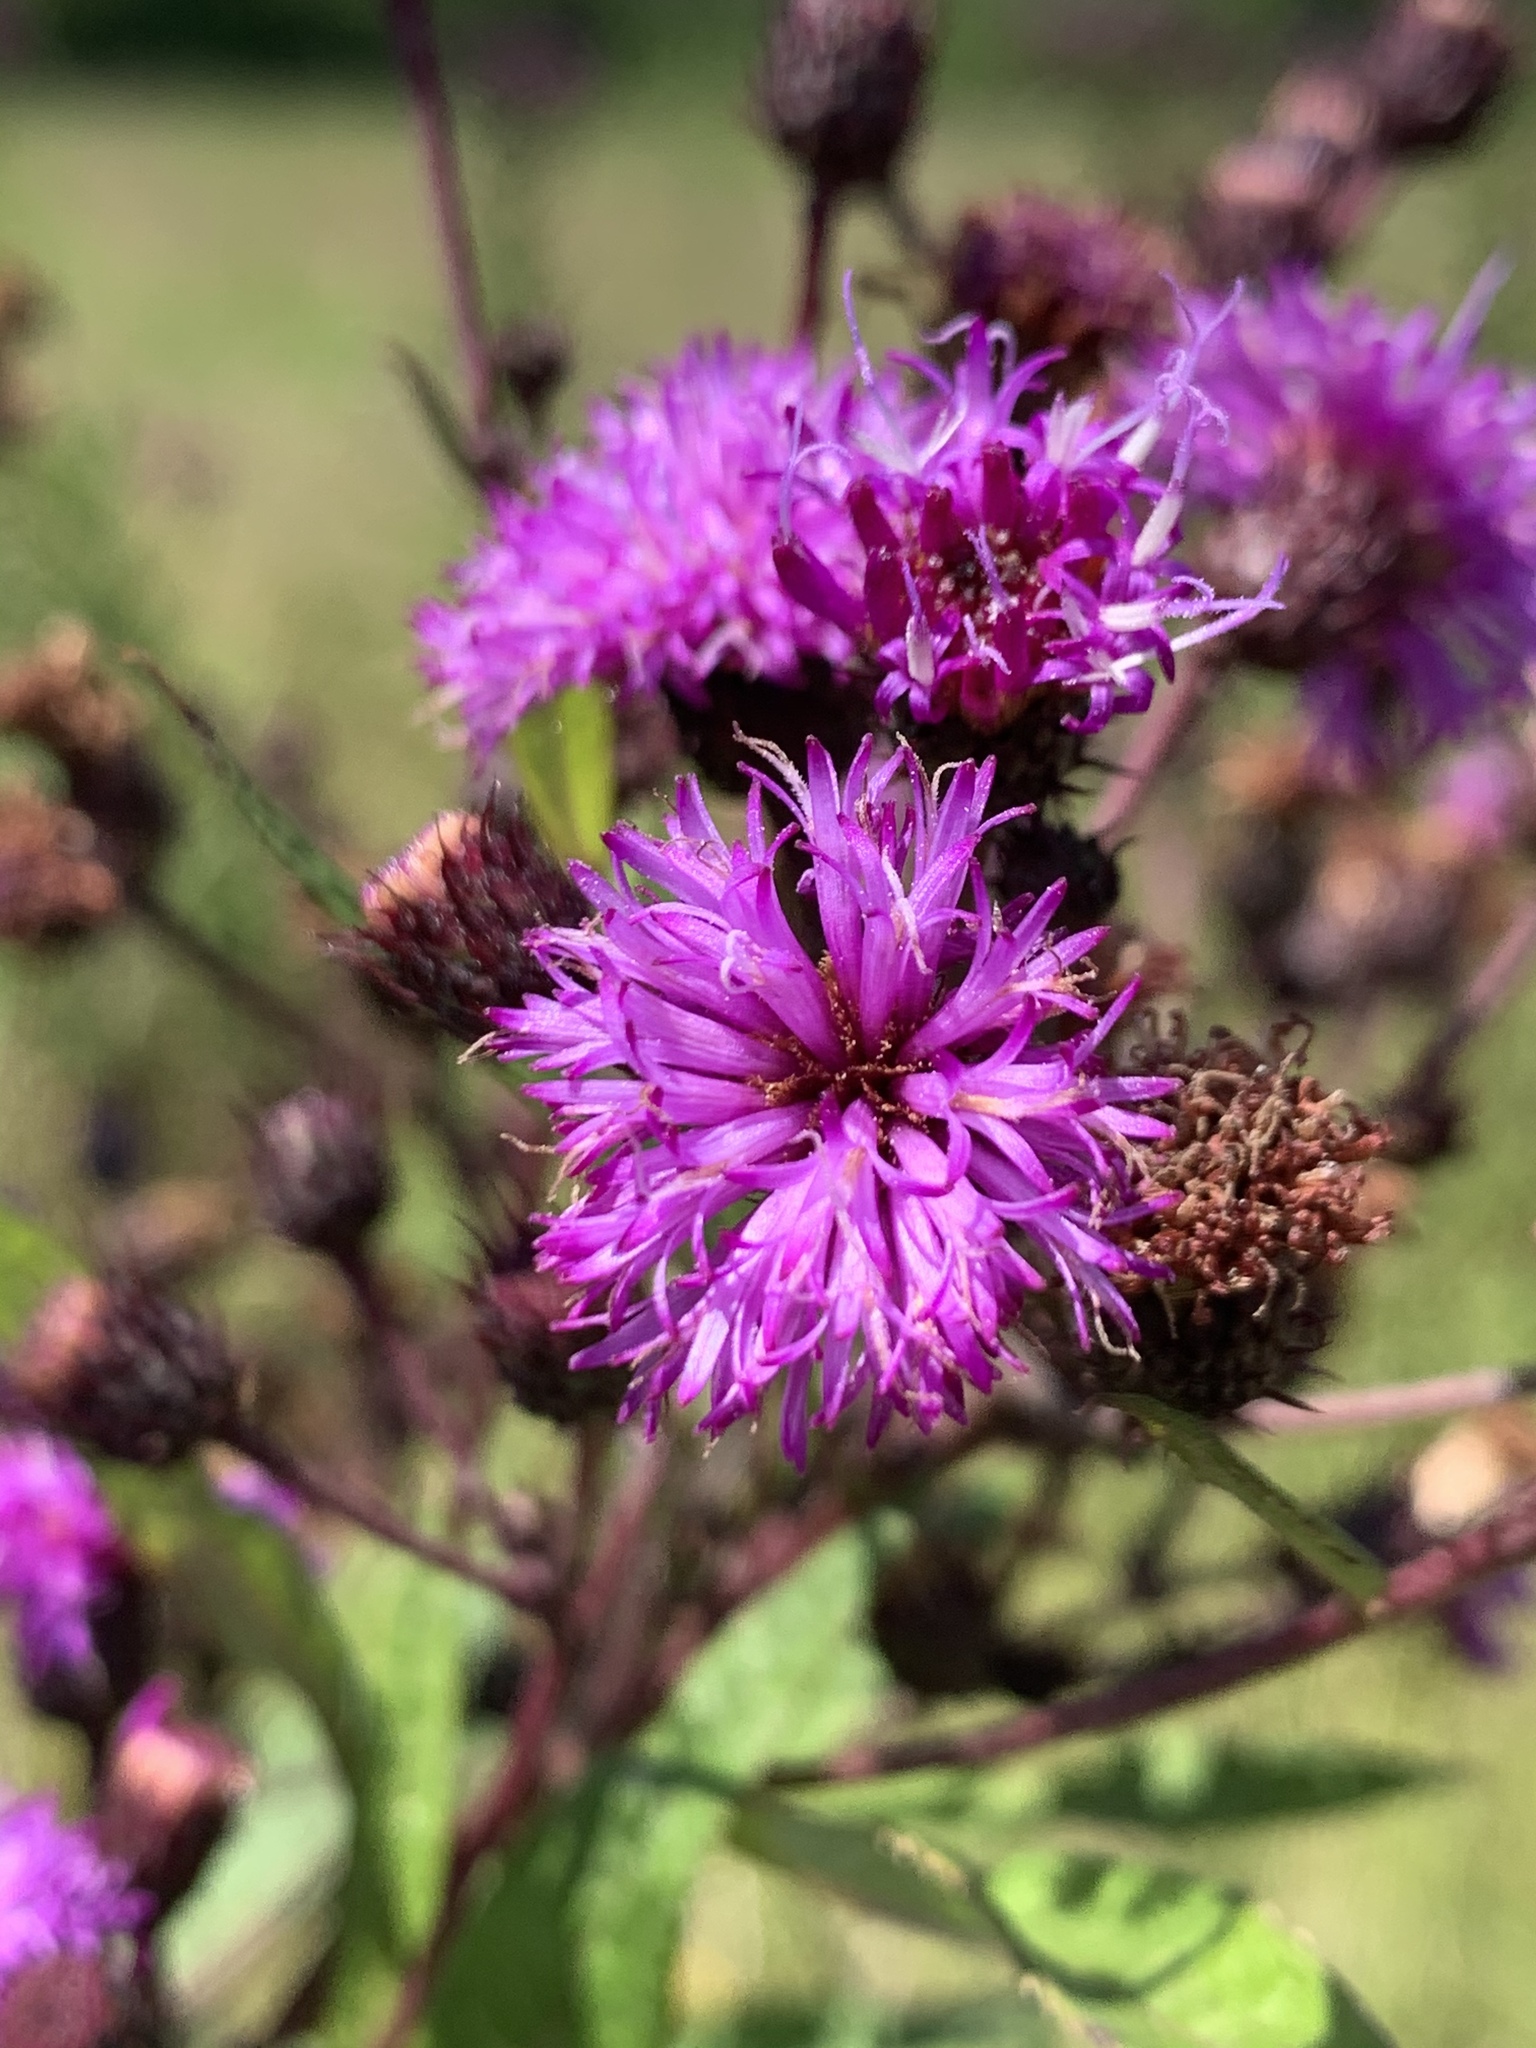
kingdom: Plantae
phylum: Tracheophyta
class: Magnoliopsida
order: Asterales
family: Asteraceae
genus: Vernonia
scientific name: Vernonia noveboracensis
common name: New york ironweed
